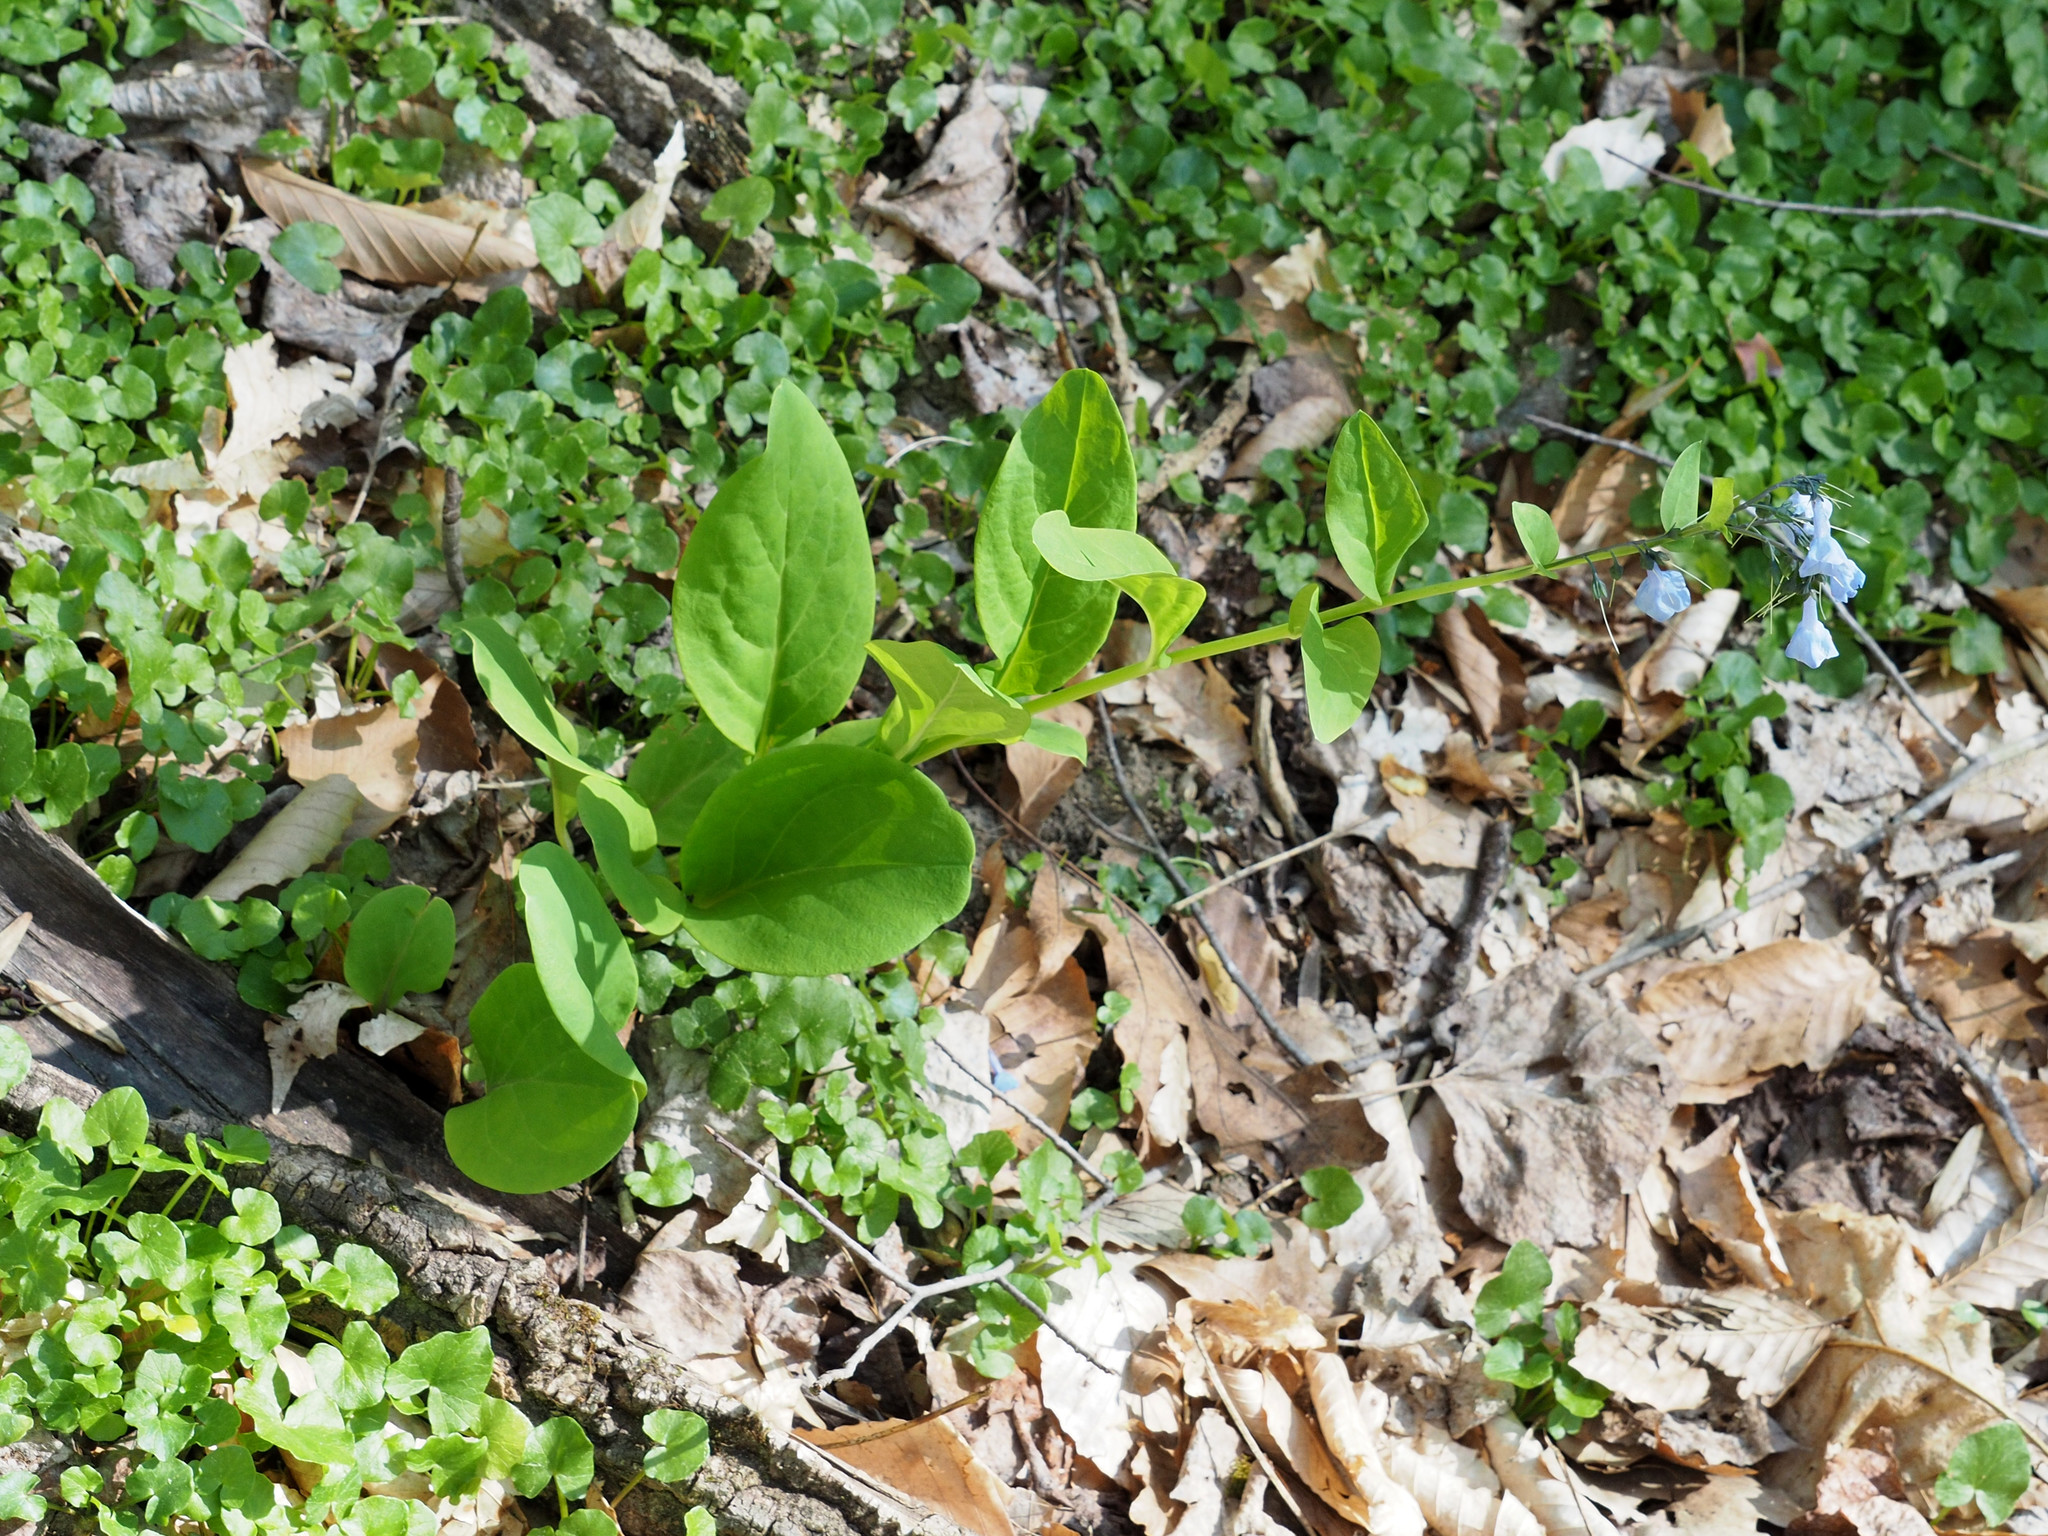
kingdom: Plantae
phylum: Tracheophyta
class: Magnoliopsida
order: Boraginales
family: Boraginaceae
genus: Mertensia
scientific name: Mertensia virginica
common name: Virginia bluebells
